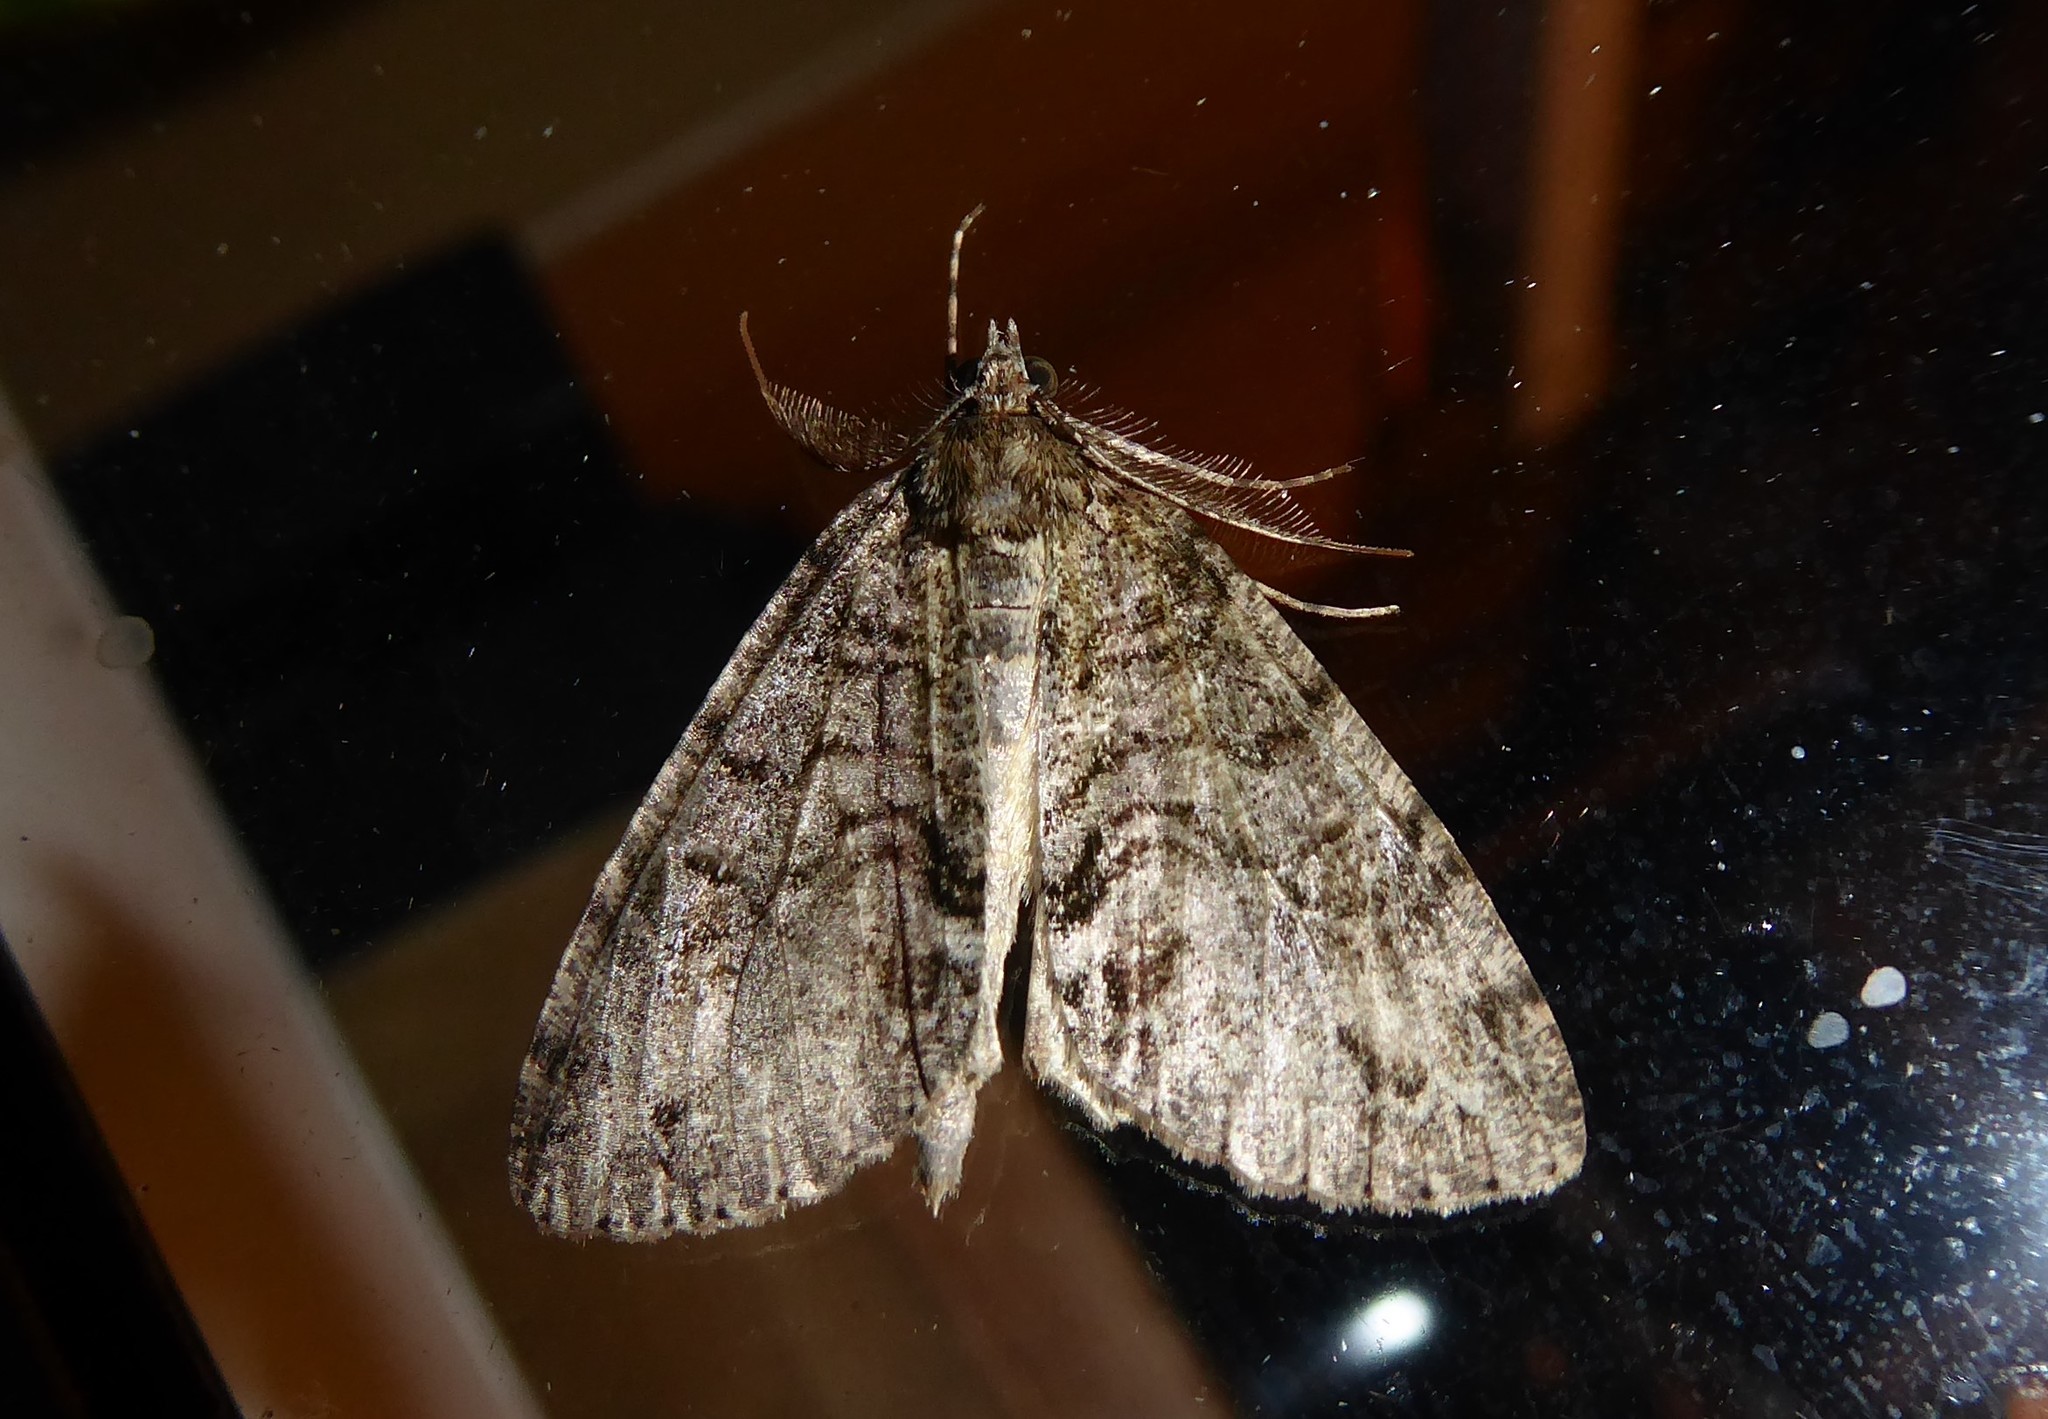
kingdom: Animalia
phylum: Arthropoda
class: Insecta
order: Lepidoptera
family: Geometridae
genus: Pseudocoremia
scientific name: Pseudocoremia suavis
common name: Common forest looper
